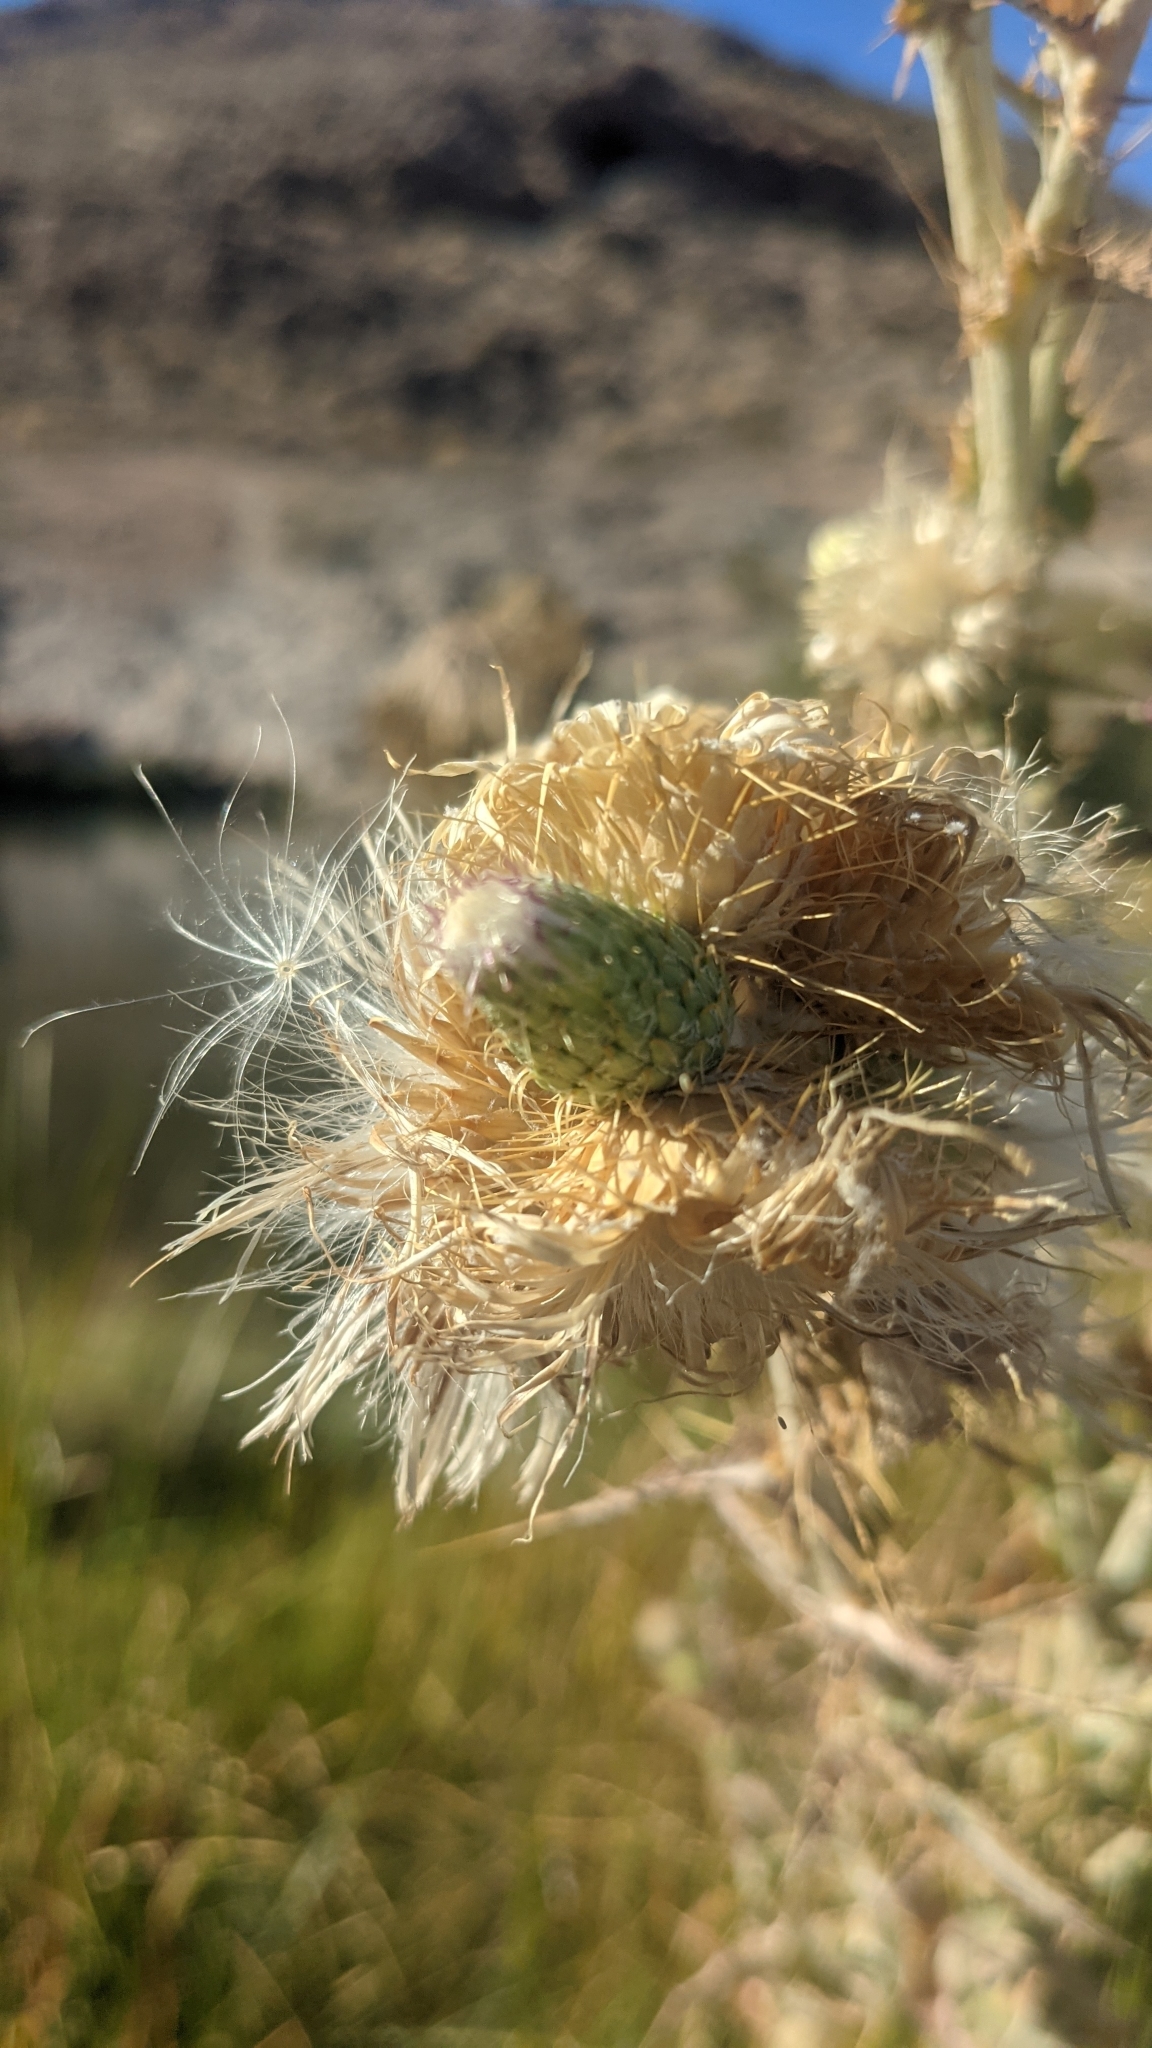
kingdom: Plantae
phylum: Tracheophyta
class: Magnoliopsida
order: Asterales
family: Asteraceae
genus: Cirsium
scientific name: Cirsium mohavense
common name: Mojave thistle
